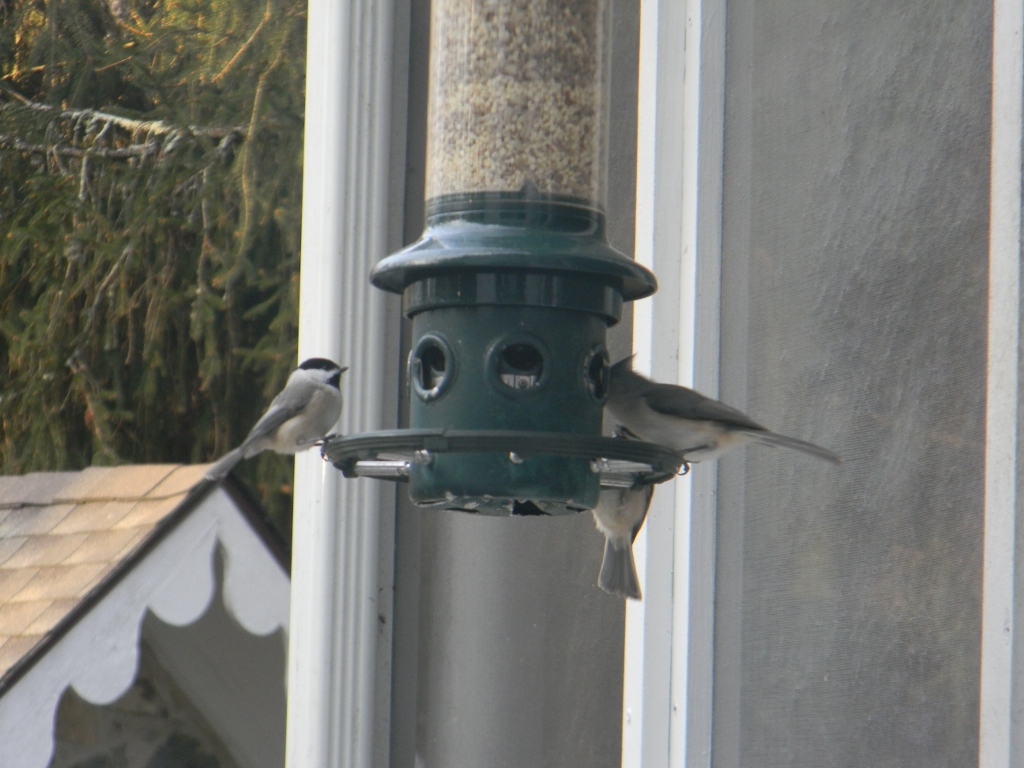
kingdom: Animalia
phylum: Chordata
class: Aves
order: Passeriformes
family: Paridae
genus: Baeolophus
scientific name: Baeolophus bicolor
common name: Tufted titmouse
